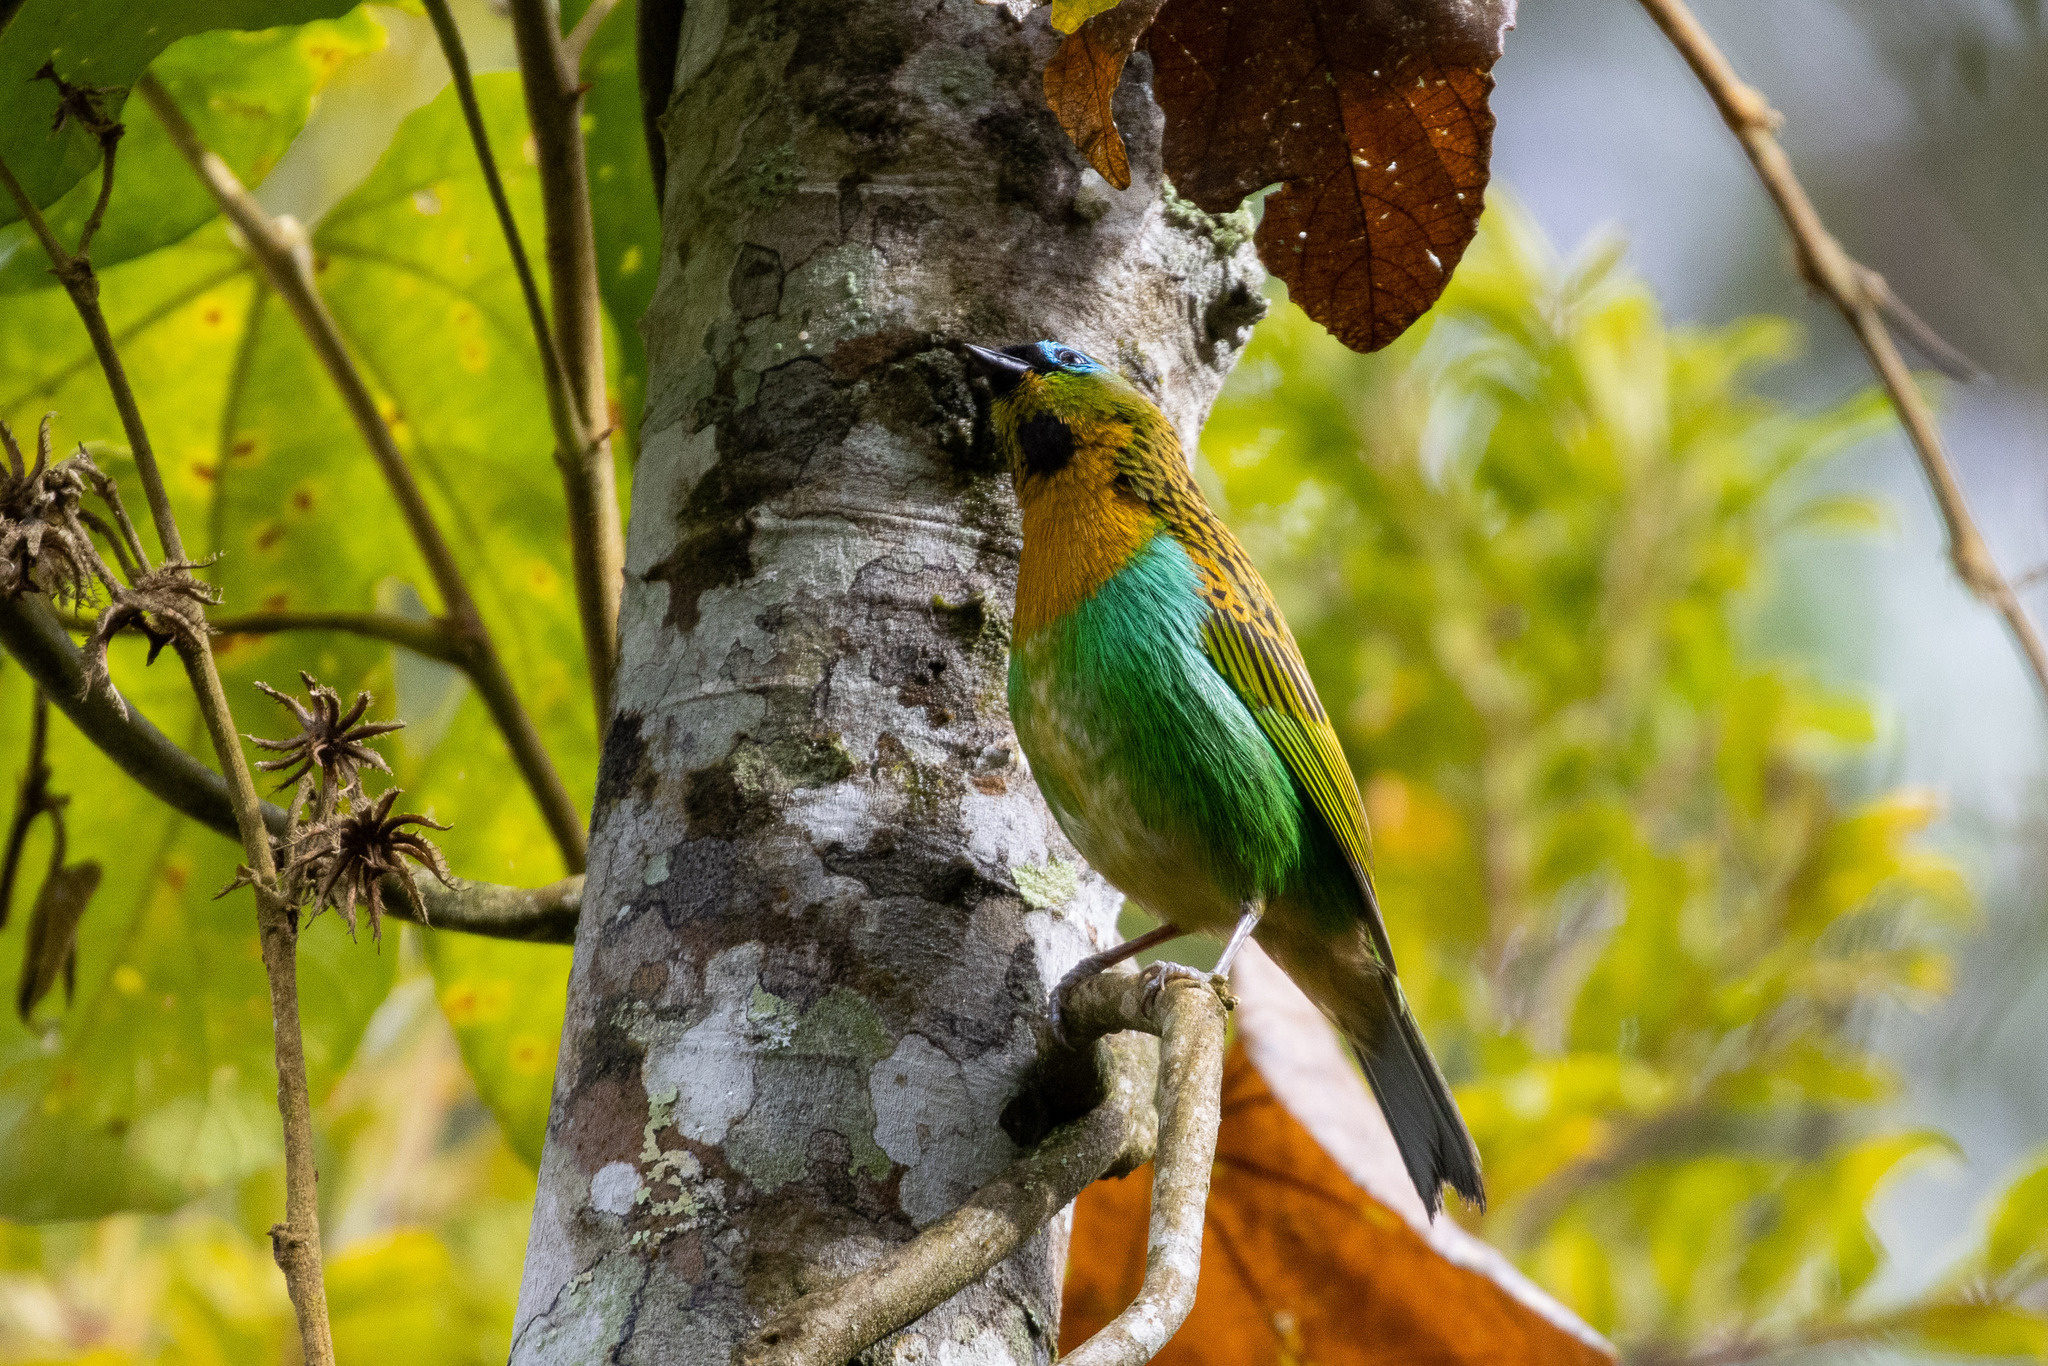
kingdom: Animalia
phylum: Chordata
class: Aves
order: Passeriformes
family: Thraupidae
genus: Tangara
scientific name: Tangara desmaresti
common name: Brassy-breasted tanager
